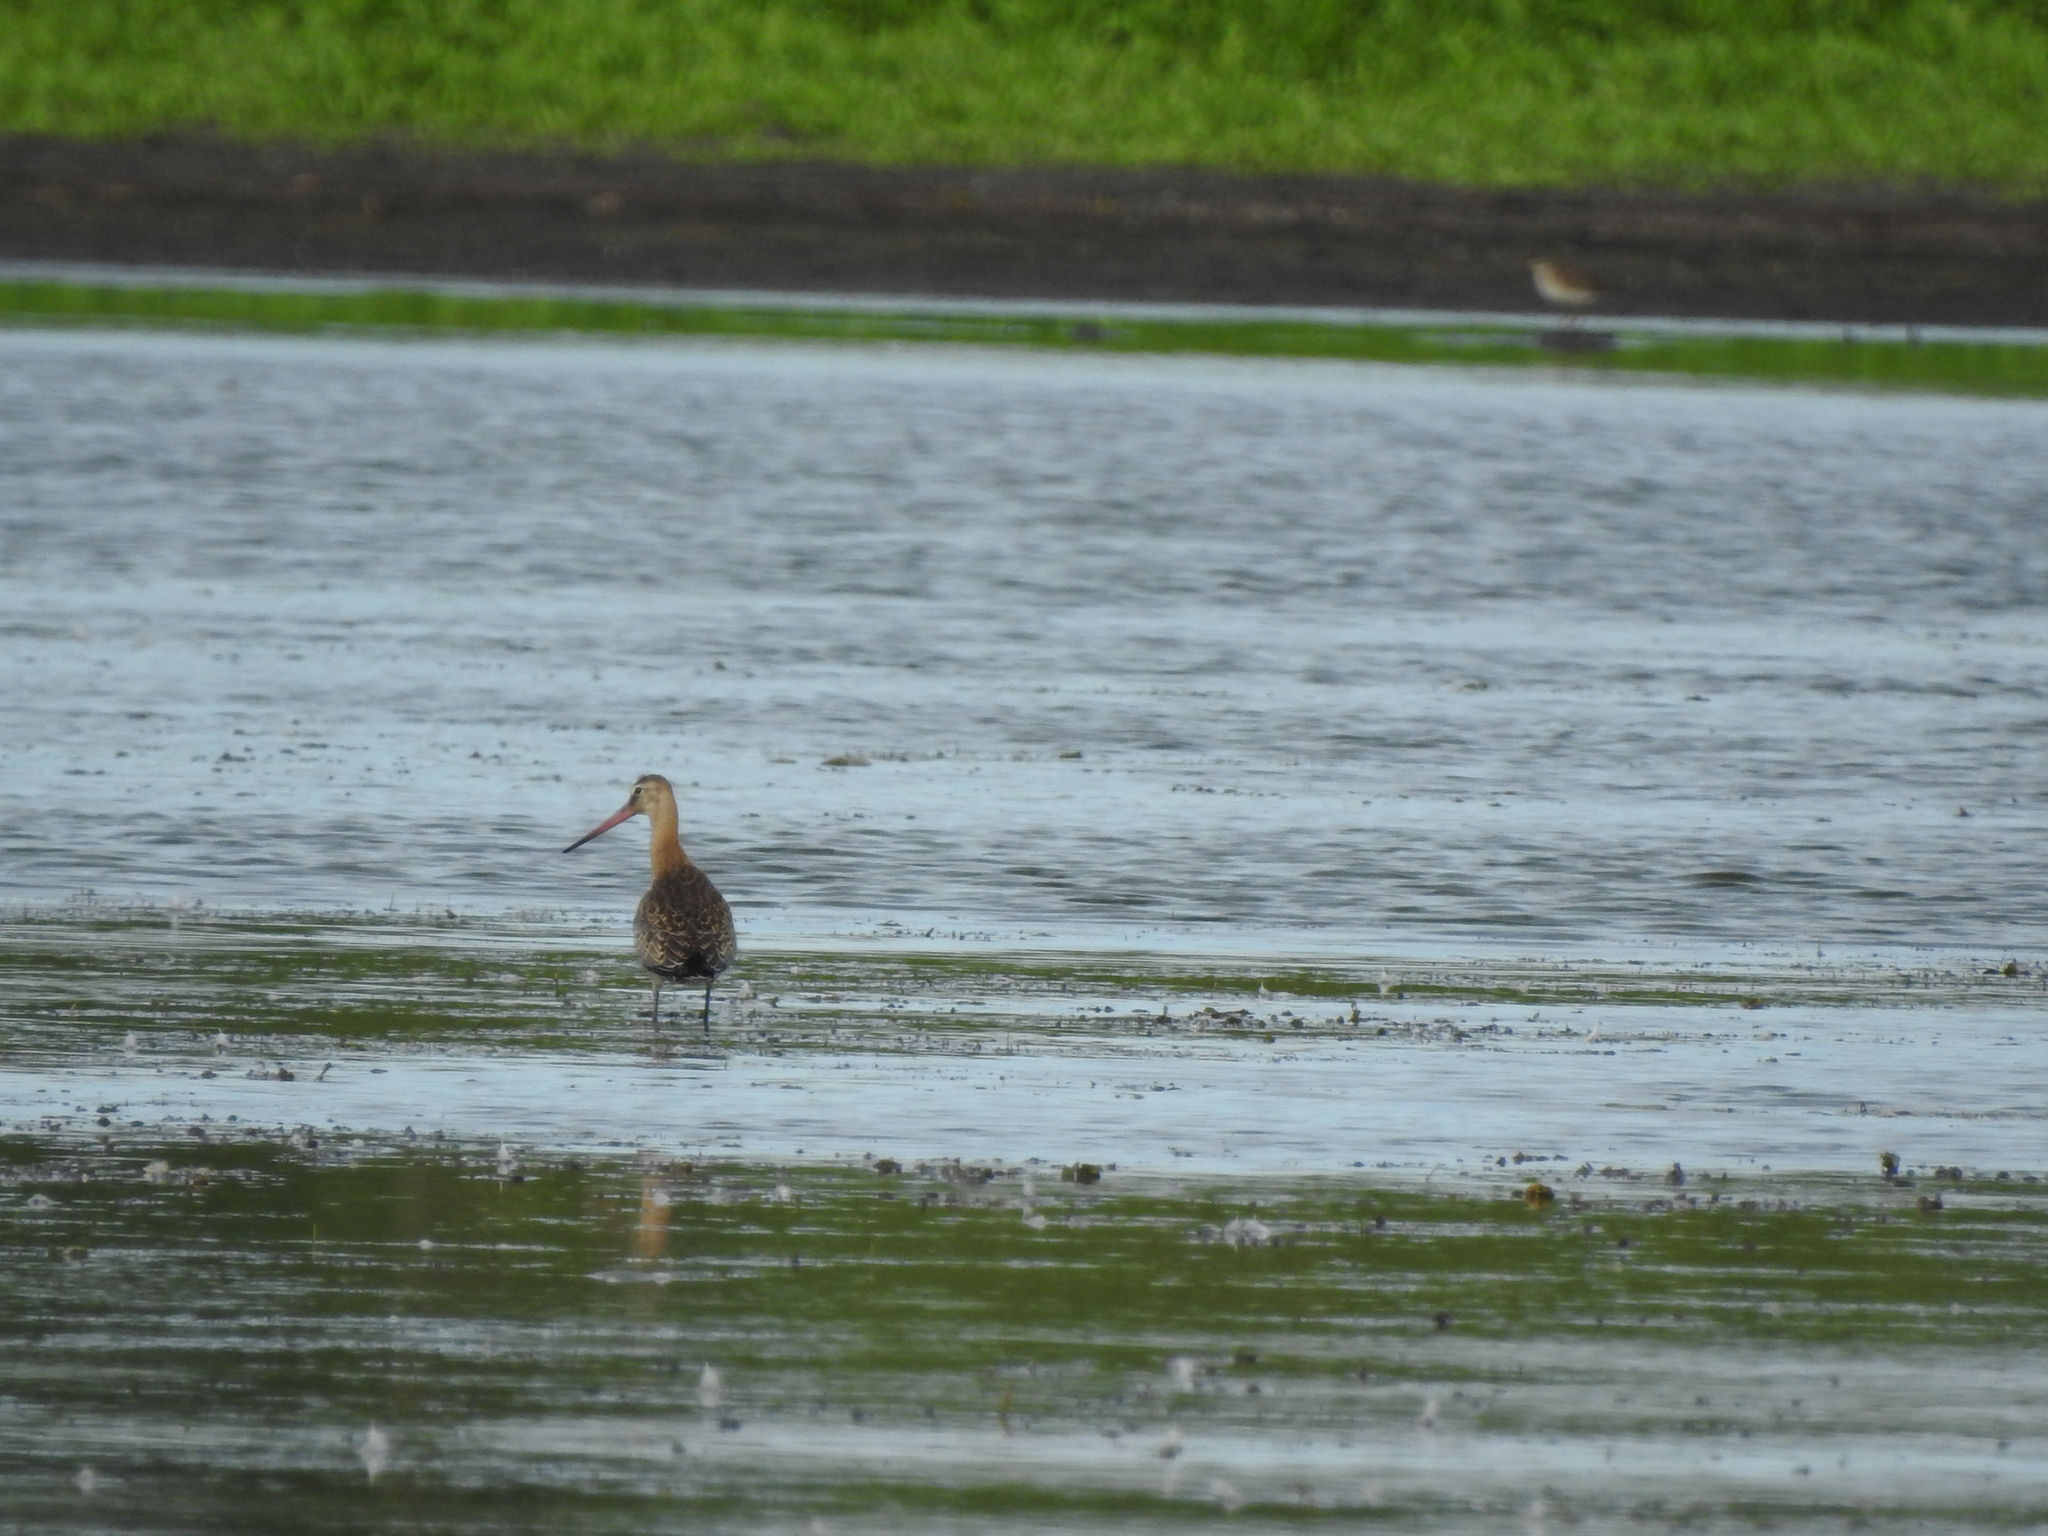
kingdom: Animalia
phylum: Chordata
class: Aves
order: Charadriiformes
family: Scolopacidae
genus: Limosa
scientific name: Limosa limosa
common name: Black-tailed godwit
